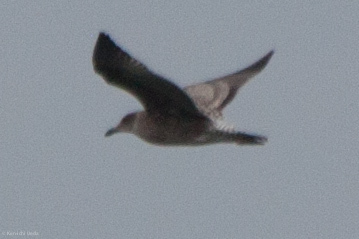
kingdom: Animalia
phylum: Chordata
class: Aves
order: Charadriiformes
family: Laridae
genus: Larus
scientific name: Larus occidentalis
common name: Western gull
